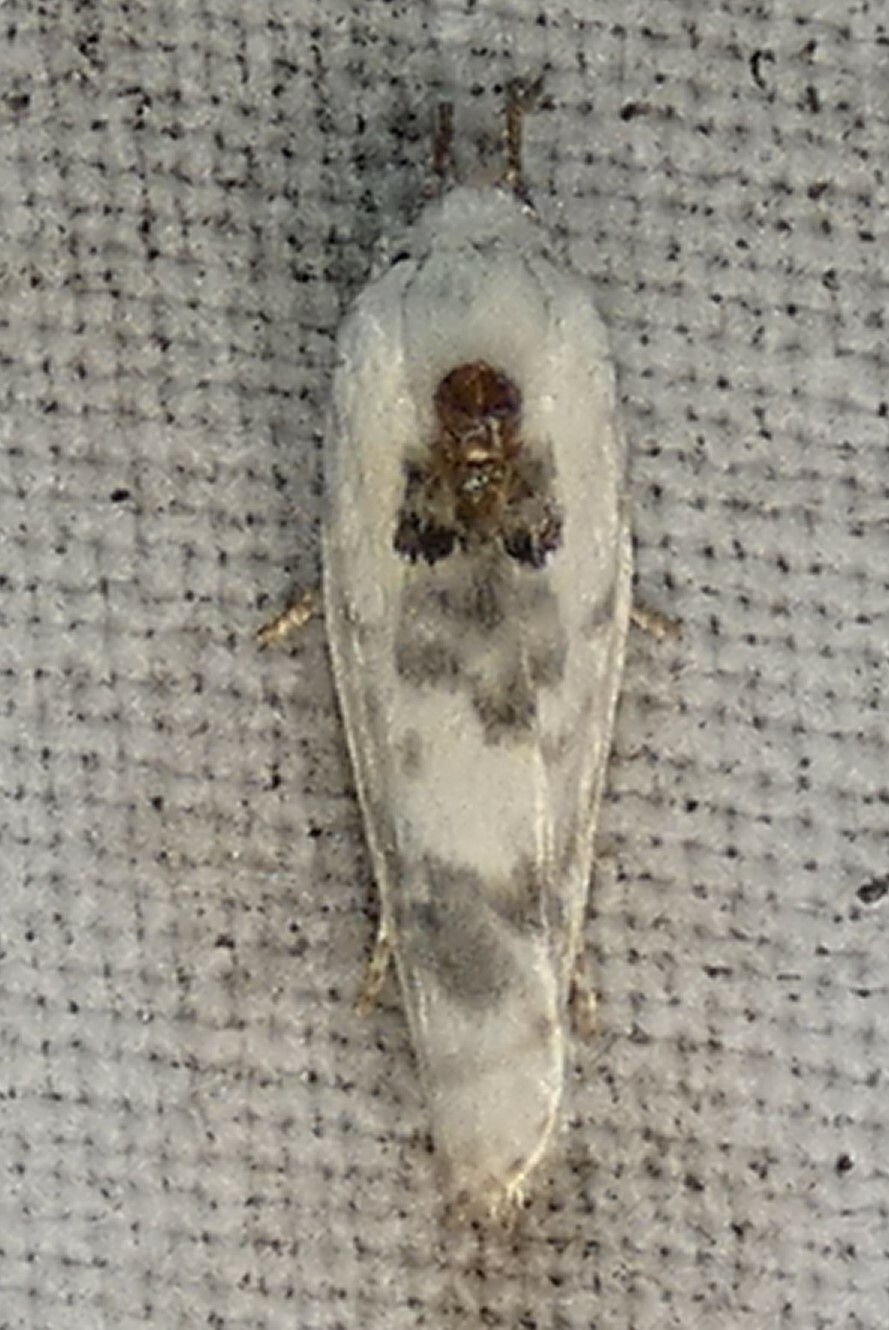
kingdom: Animalia
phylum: Arthropoda
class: Insecta
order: Lepidoptera
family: Depressariidae
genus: Antaeotricha
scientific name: Antaeotricha leucillana
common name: Pale gray bird-dropping moth
